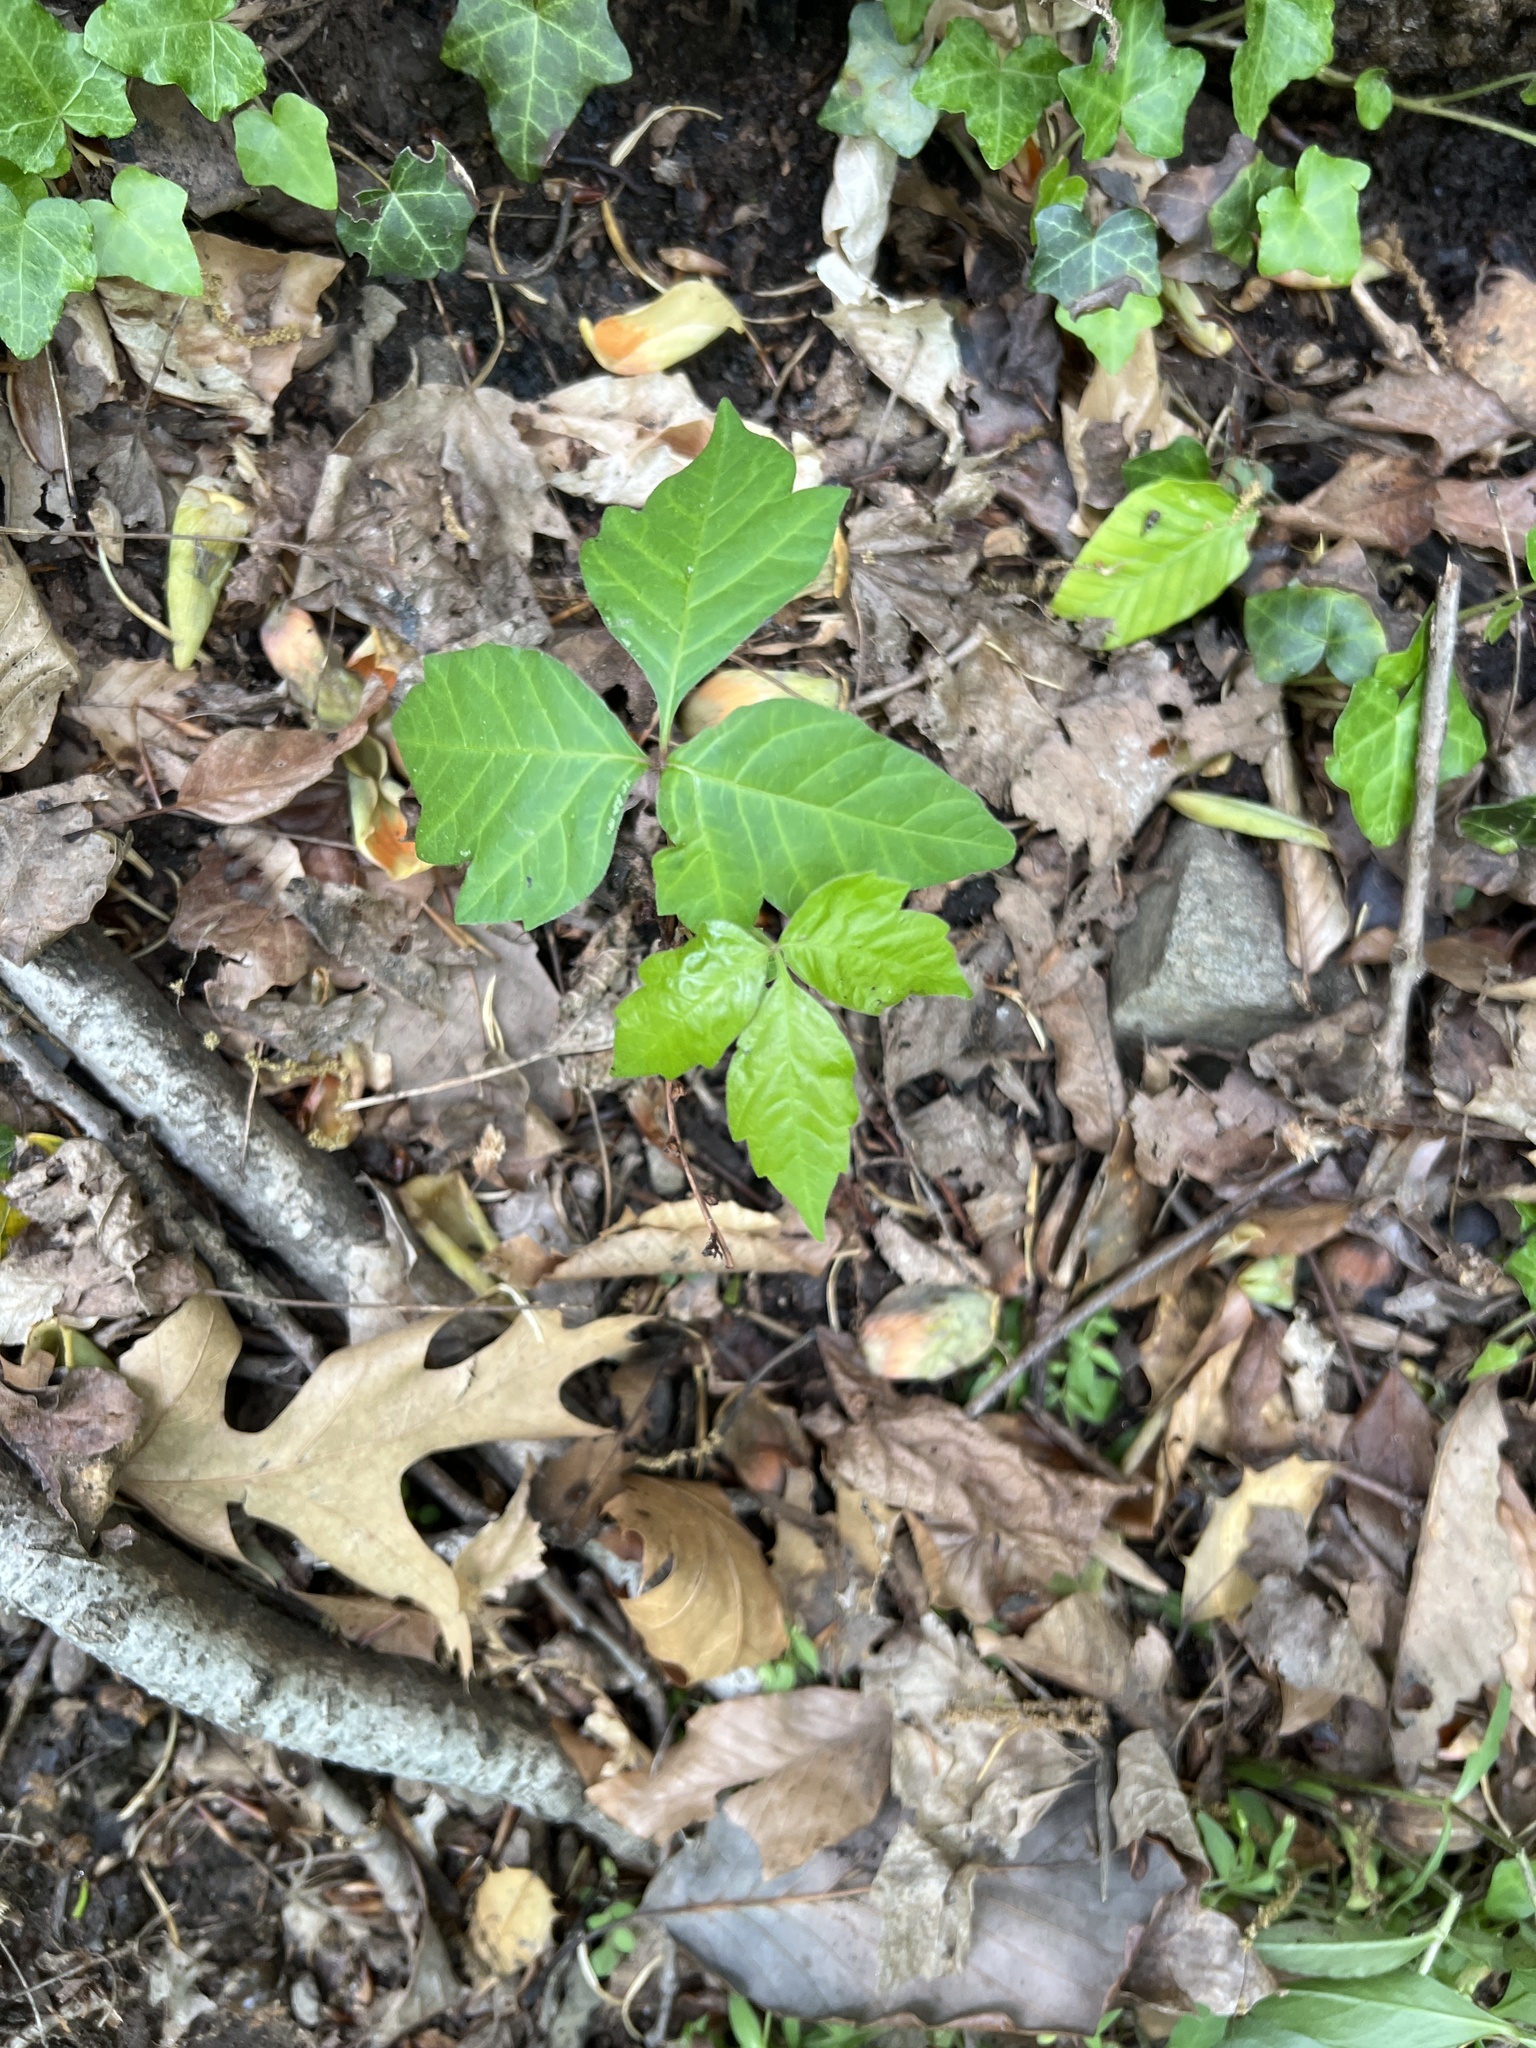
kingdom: Plantae
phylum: Tracheophyta
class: Magnoliopsida
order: Sapindales
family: Anacardiaceae
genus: Toxicodendron
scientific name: Toxicodendron radicans
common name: Poison ivy
